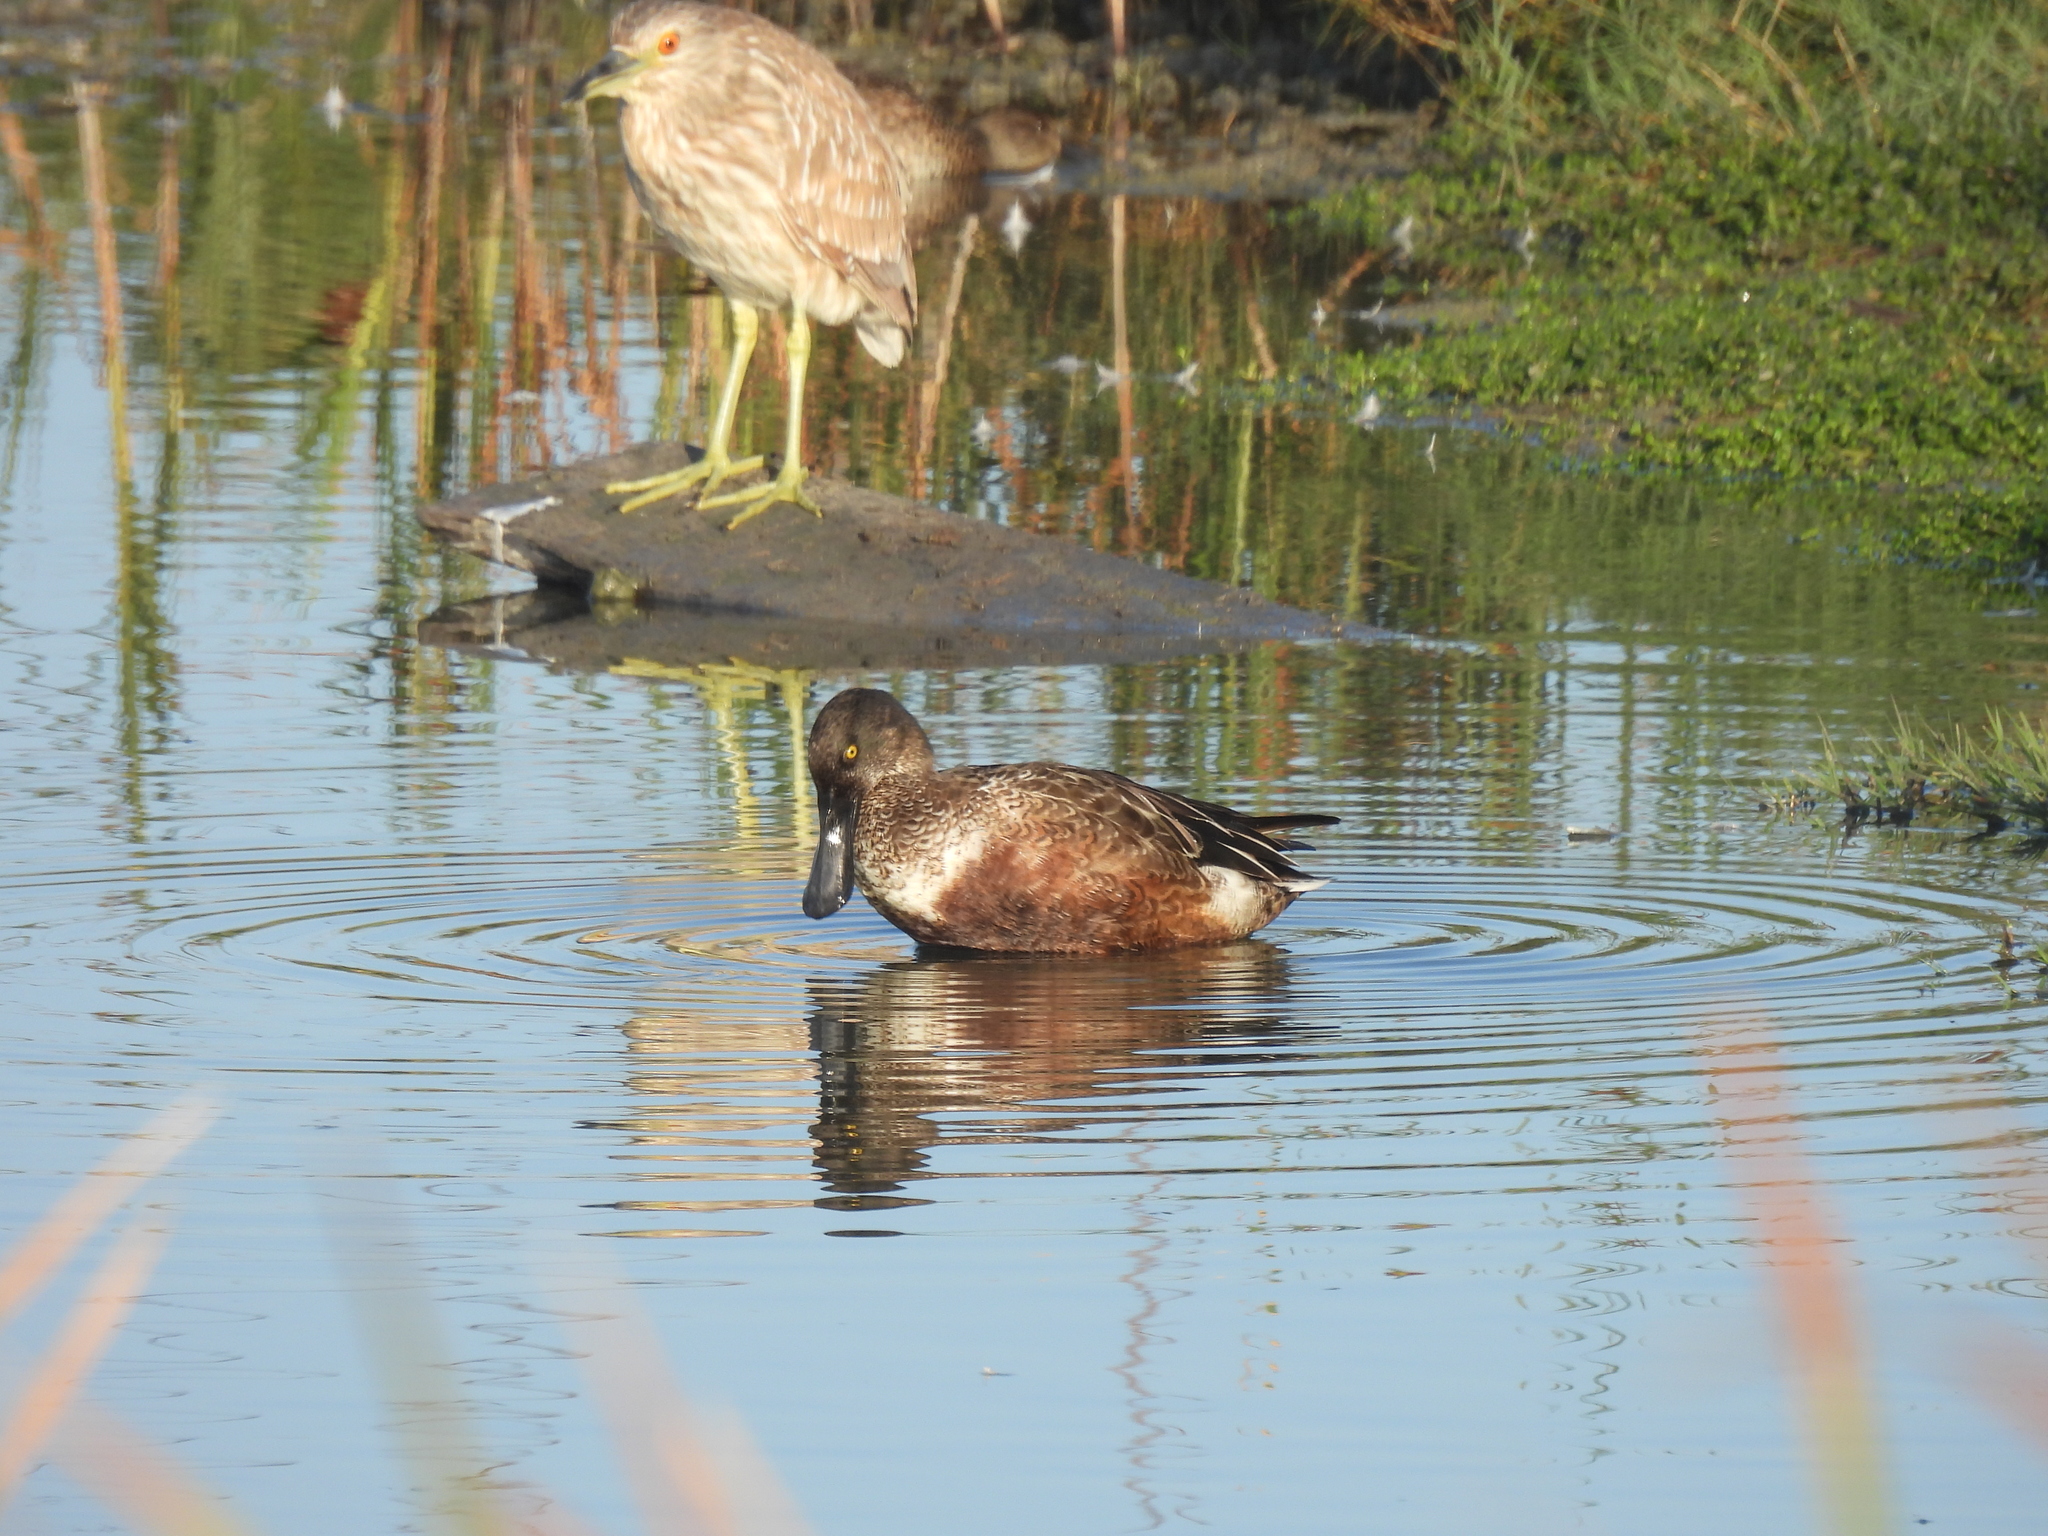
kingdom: Animalia
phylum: Chordata
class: Aves
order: Anseriformes
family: Anatidae
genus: Spatula
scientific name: Spatula clypeata
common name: Northern shoveler
